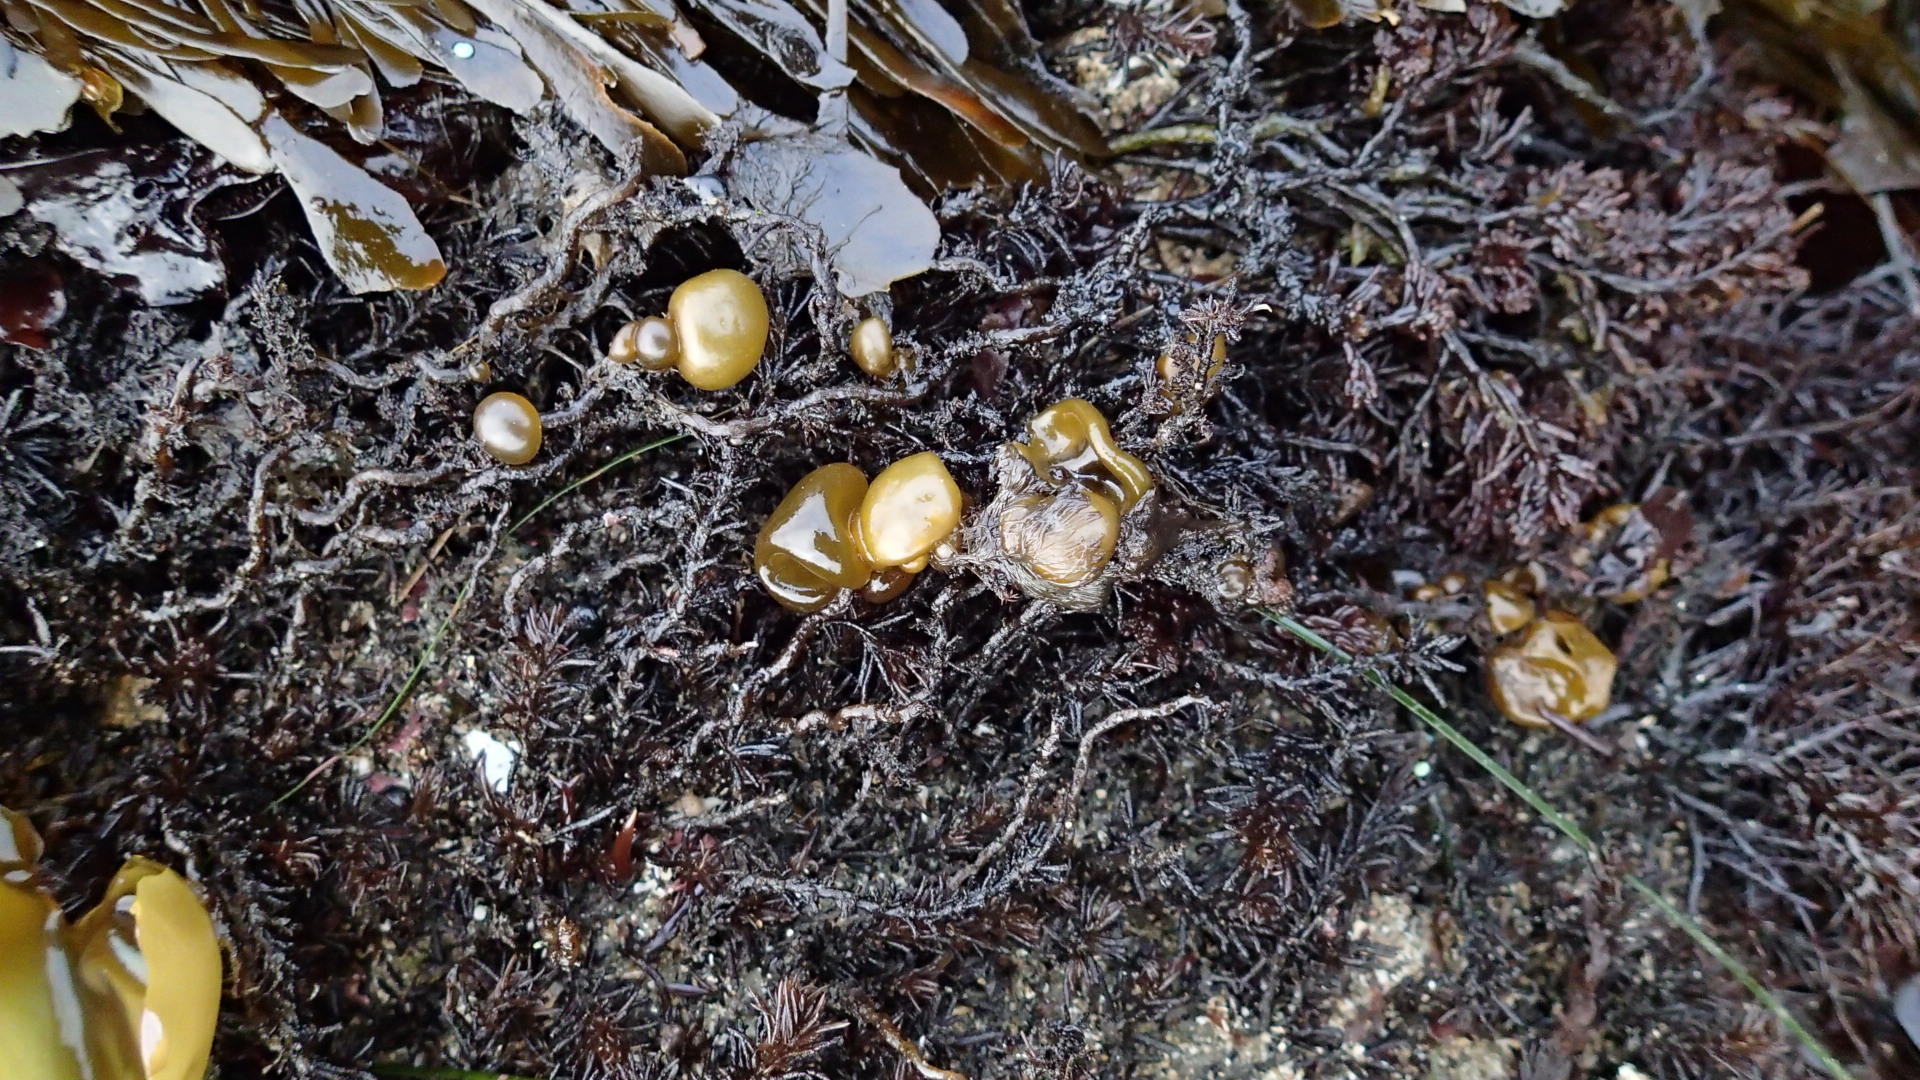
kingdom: Chromista
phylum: Ochrophyta
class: Phaeophyceae
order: Scytosiphonales
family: Scytosiphonaceae
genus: Colpomenia
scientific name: Colpomenia peregrina
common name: Oyster thief
